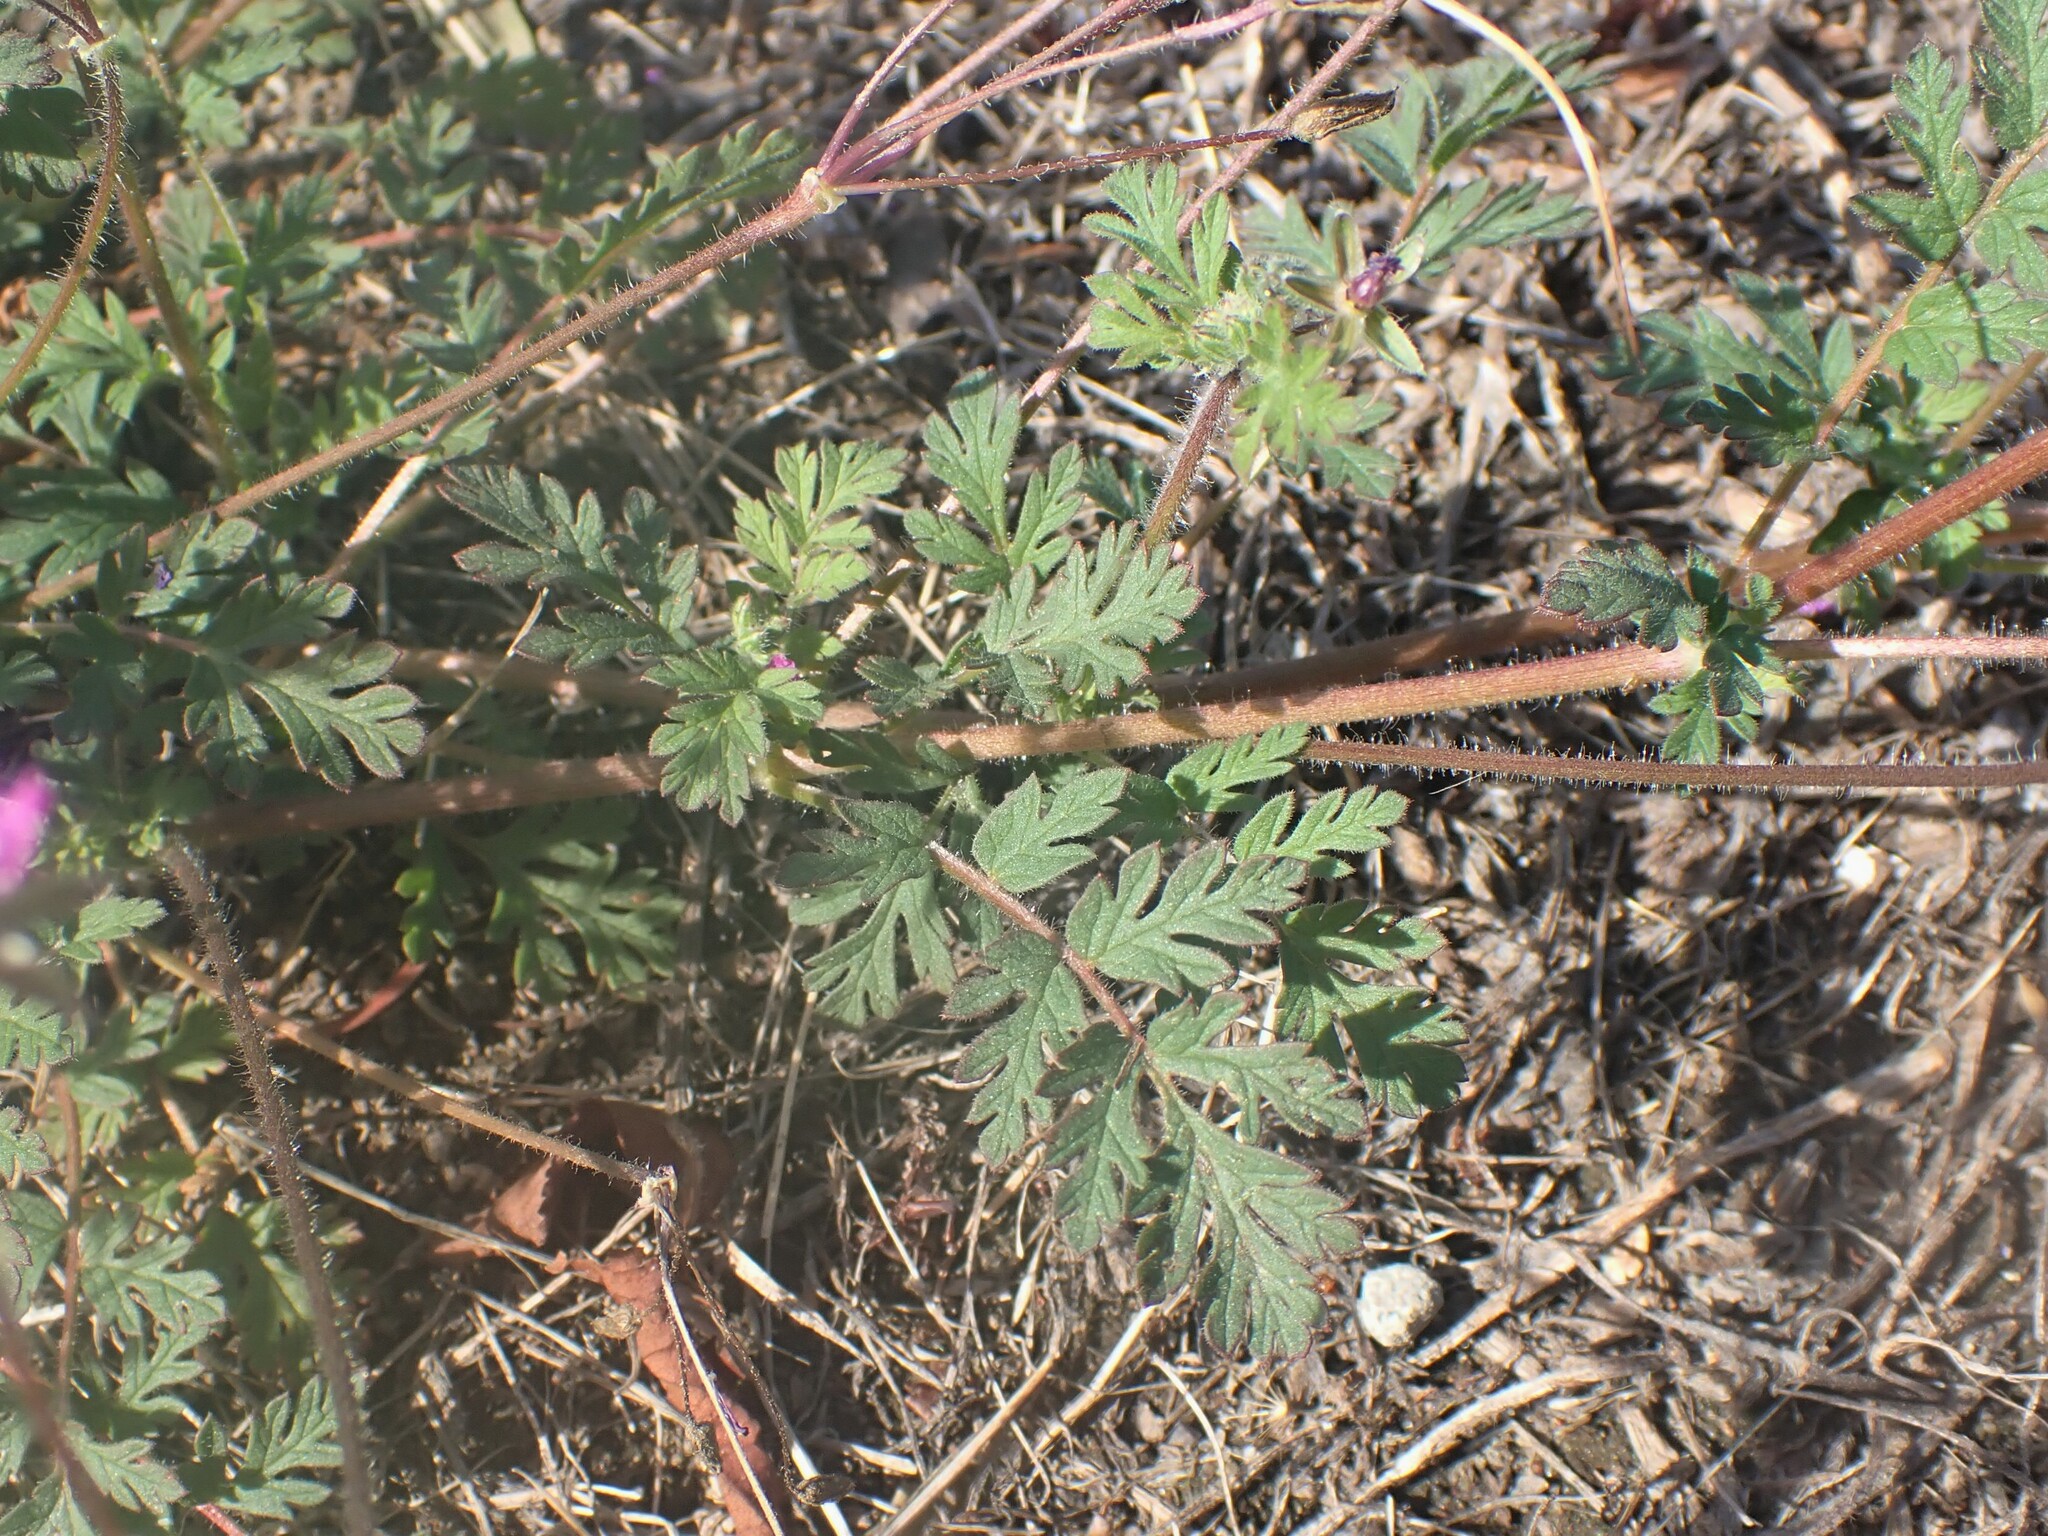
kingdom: Plantae
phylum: Tracheophyta
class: Magnoliopsida
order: Geraniales
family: Geraniaceae
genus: Erodium
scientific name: Erodium cicutarium
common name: Common stork's-bill
